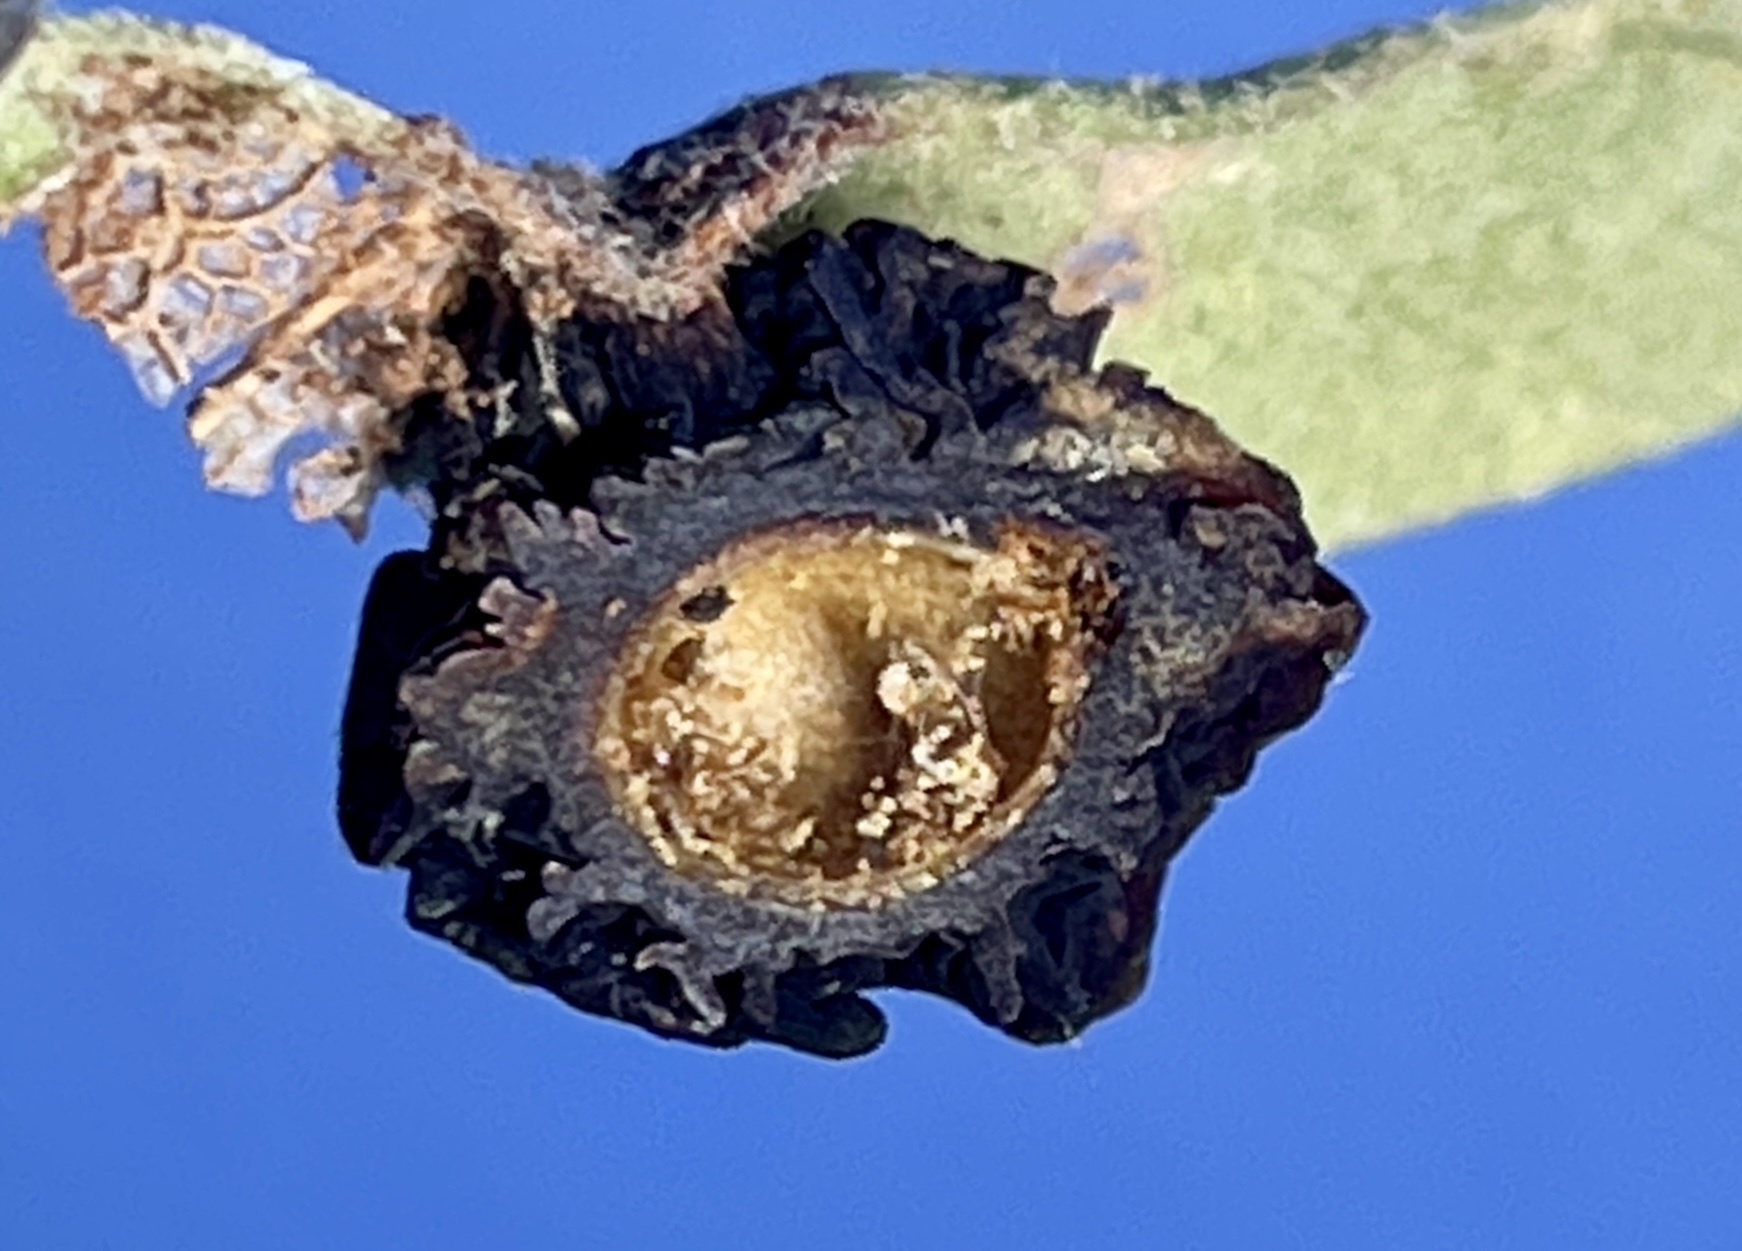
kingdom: Animalia
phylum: Arthropoda
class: Insecta
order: Hymenoptera
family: Cynipidae
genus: Amphibolips
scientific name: Amphibolips
